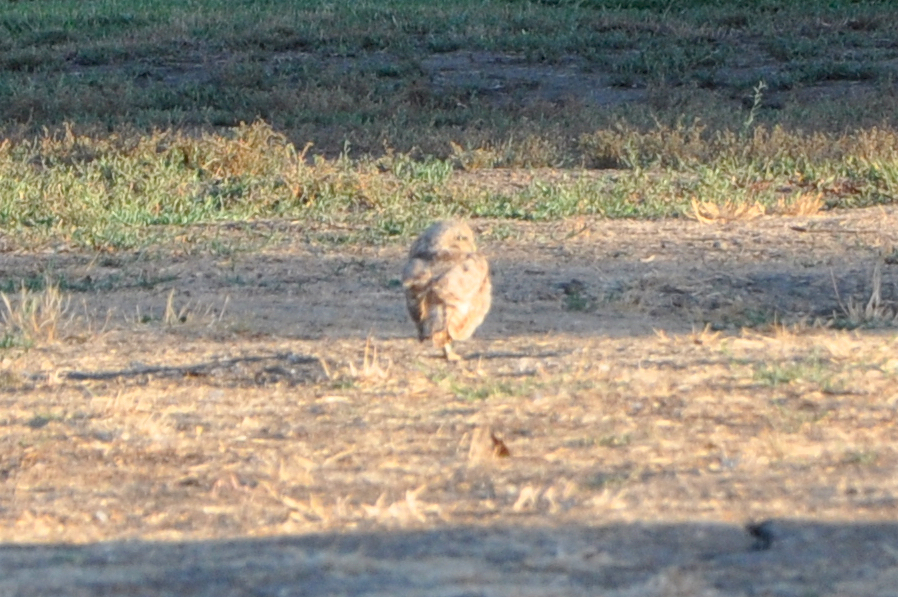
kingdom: Animalia
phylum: Chordata
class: Aves
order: Strigiformes
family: Strigidae
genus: Athene
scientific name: Athene cunicularia
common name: Burrowing owl
